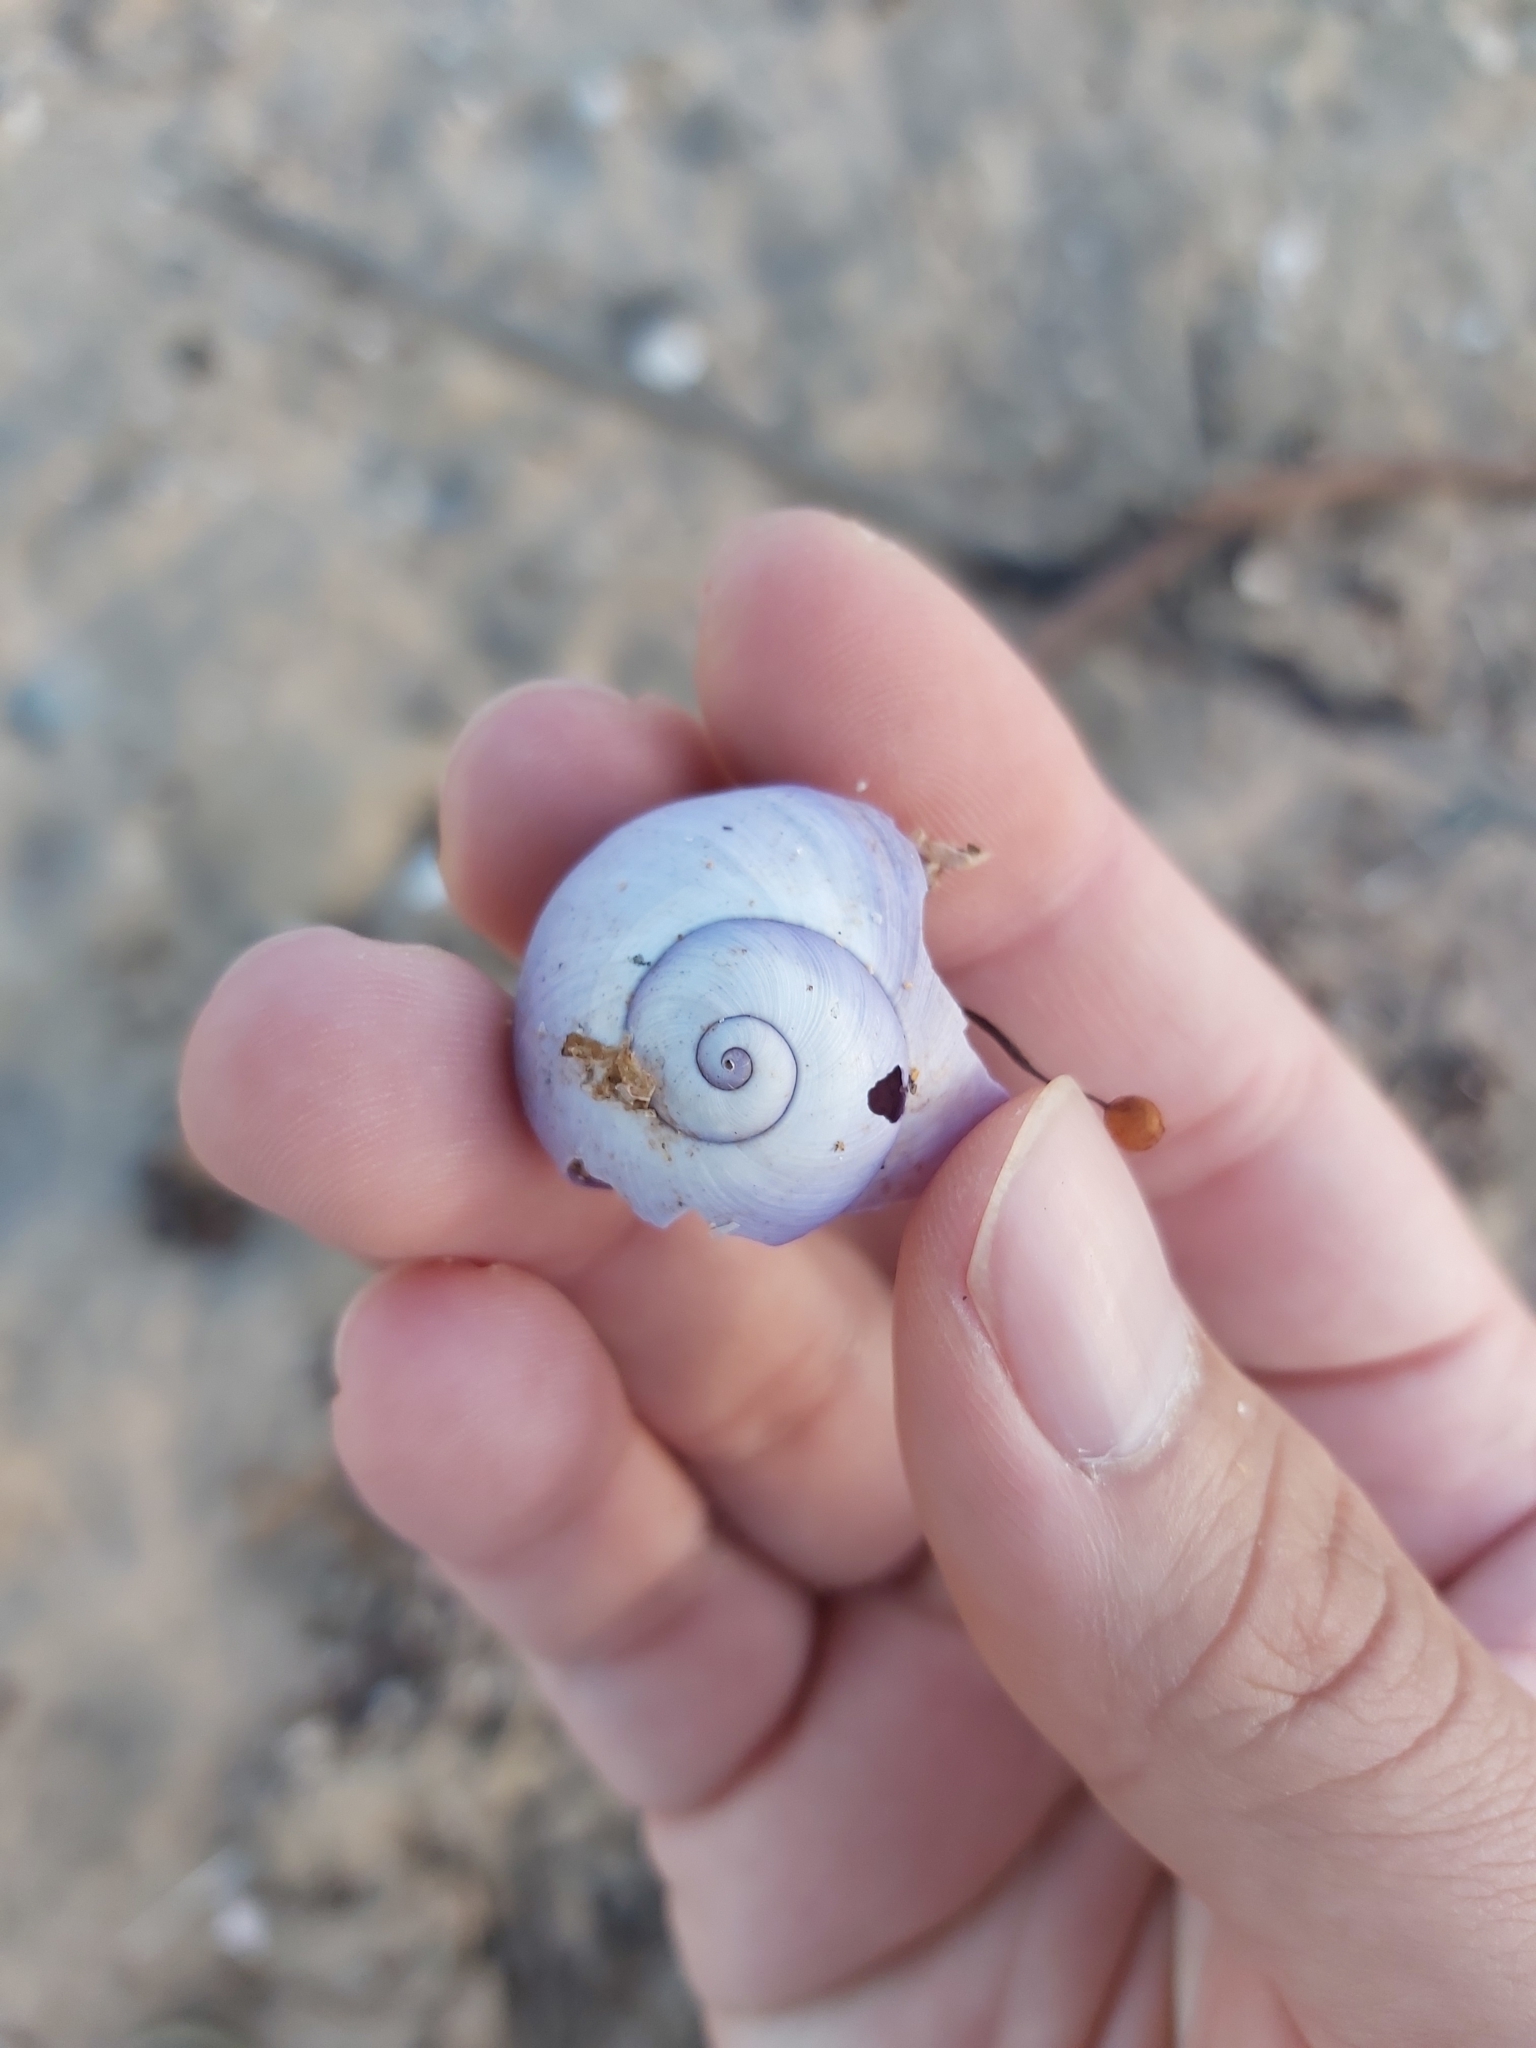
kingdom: Animalia
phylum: Mollusca
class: Gastropoda
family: Epitoniidae
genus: Janthina
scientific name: Janthina janthina
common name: Common janthina
